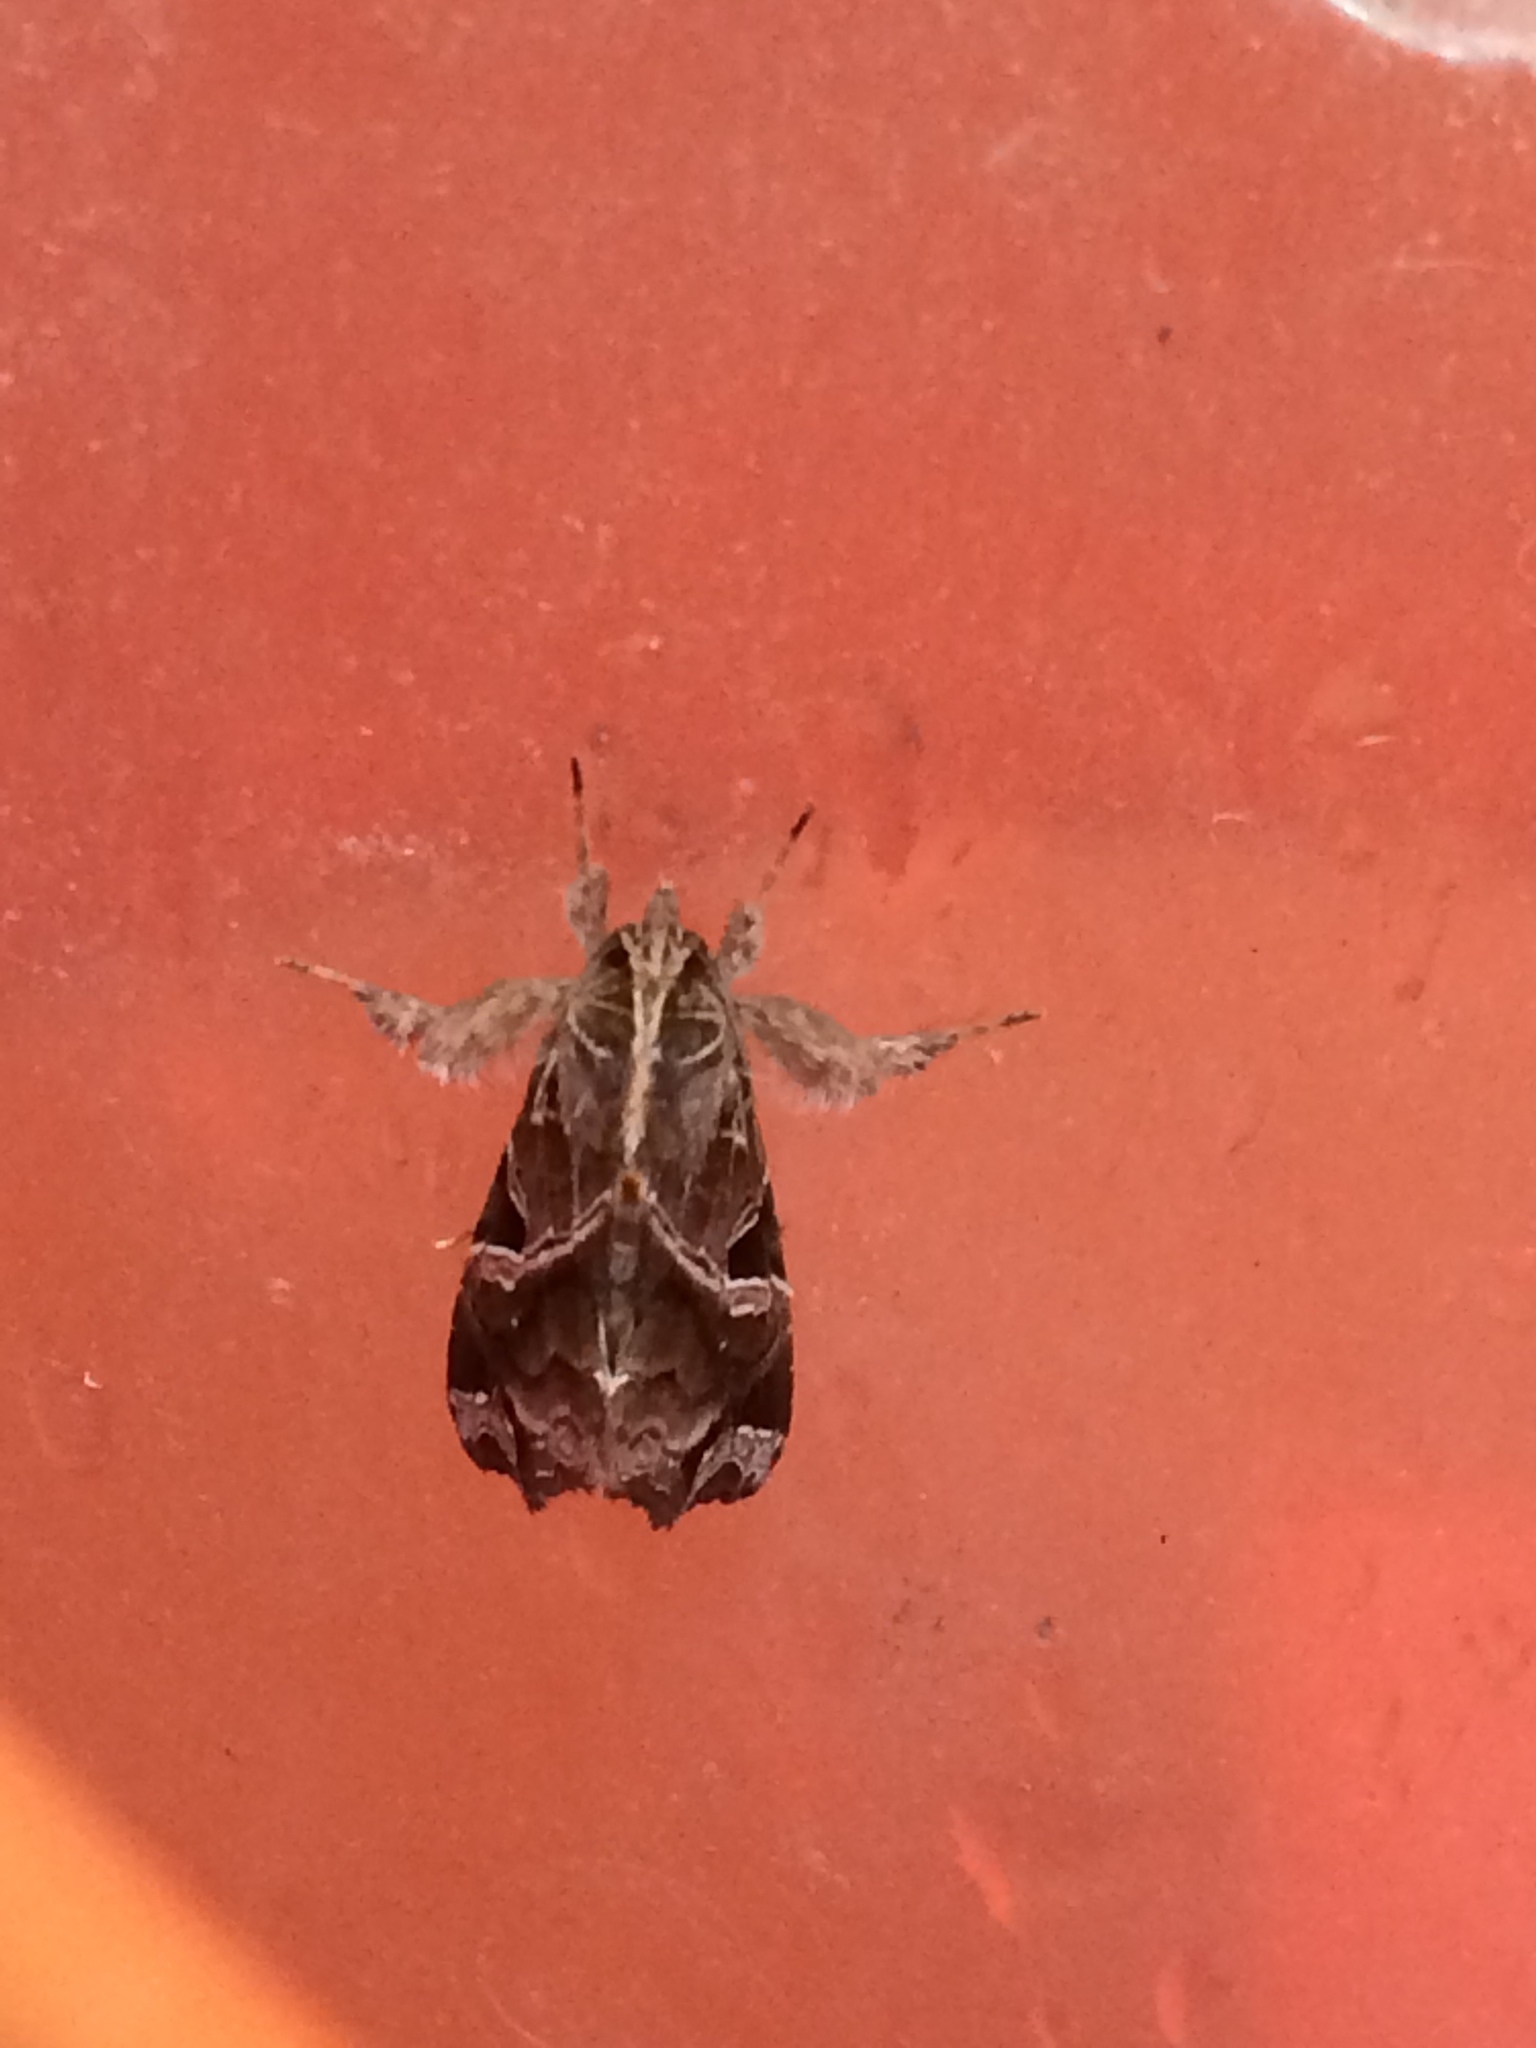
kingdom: Animalia
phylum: Arthropoda
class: Insecta
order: Lepidoptera
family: Noctuidae
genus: Callopistria
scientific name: Callopistria floridensis
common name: Florida fern moth
